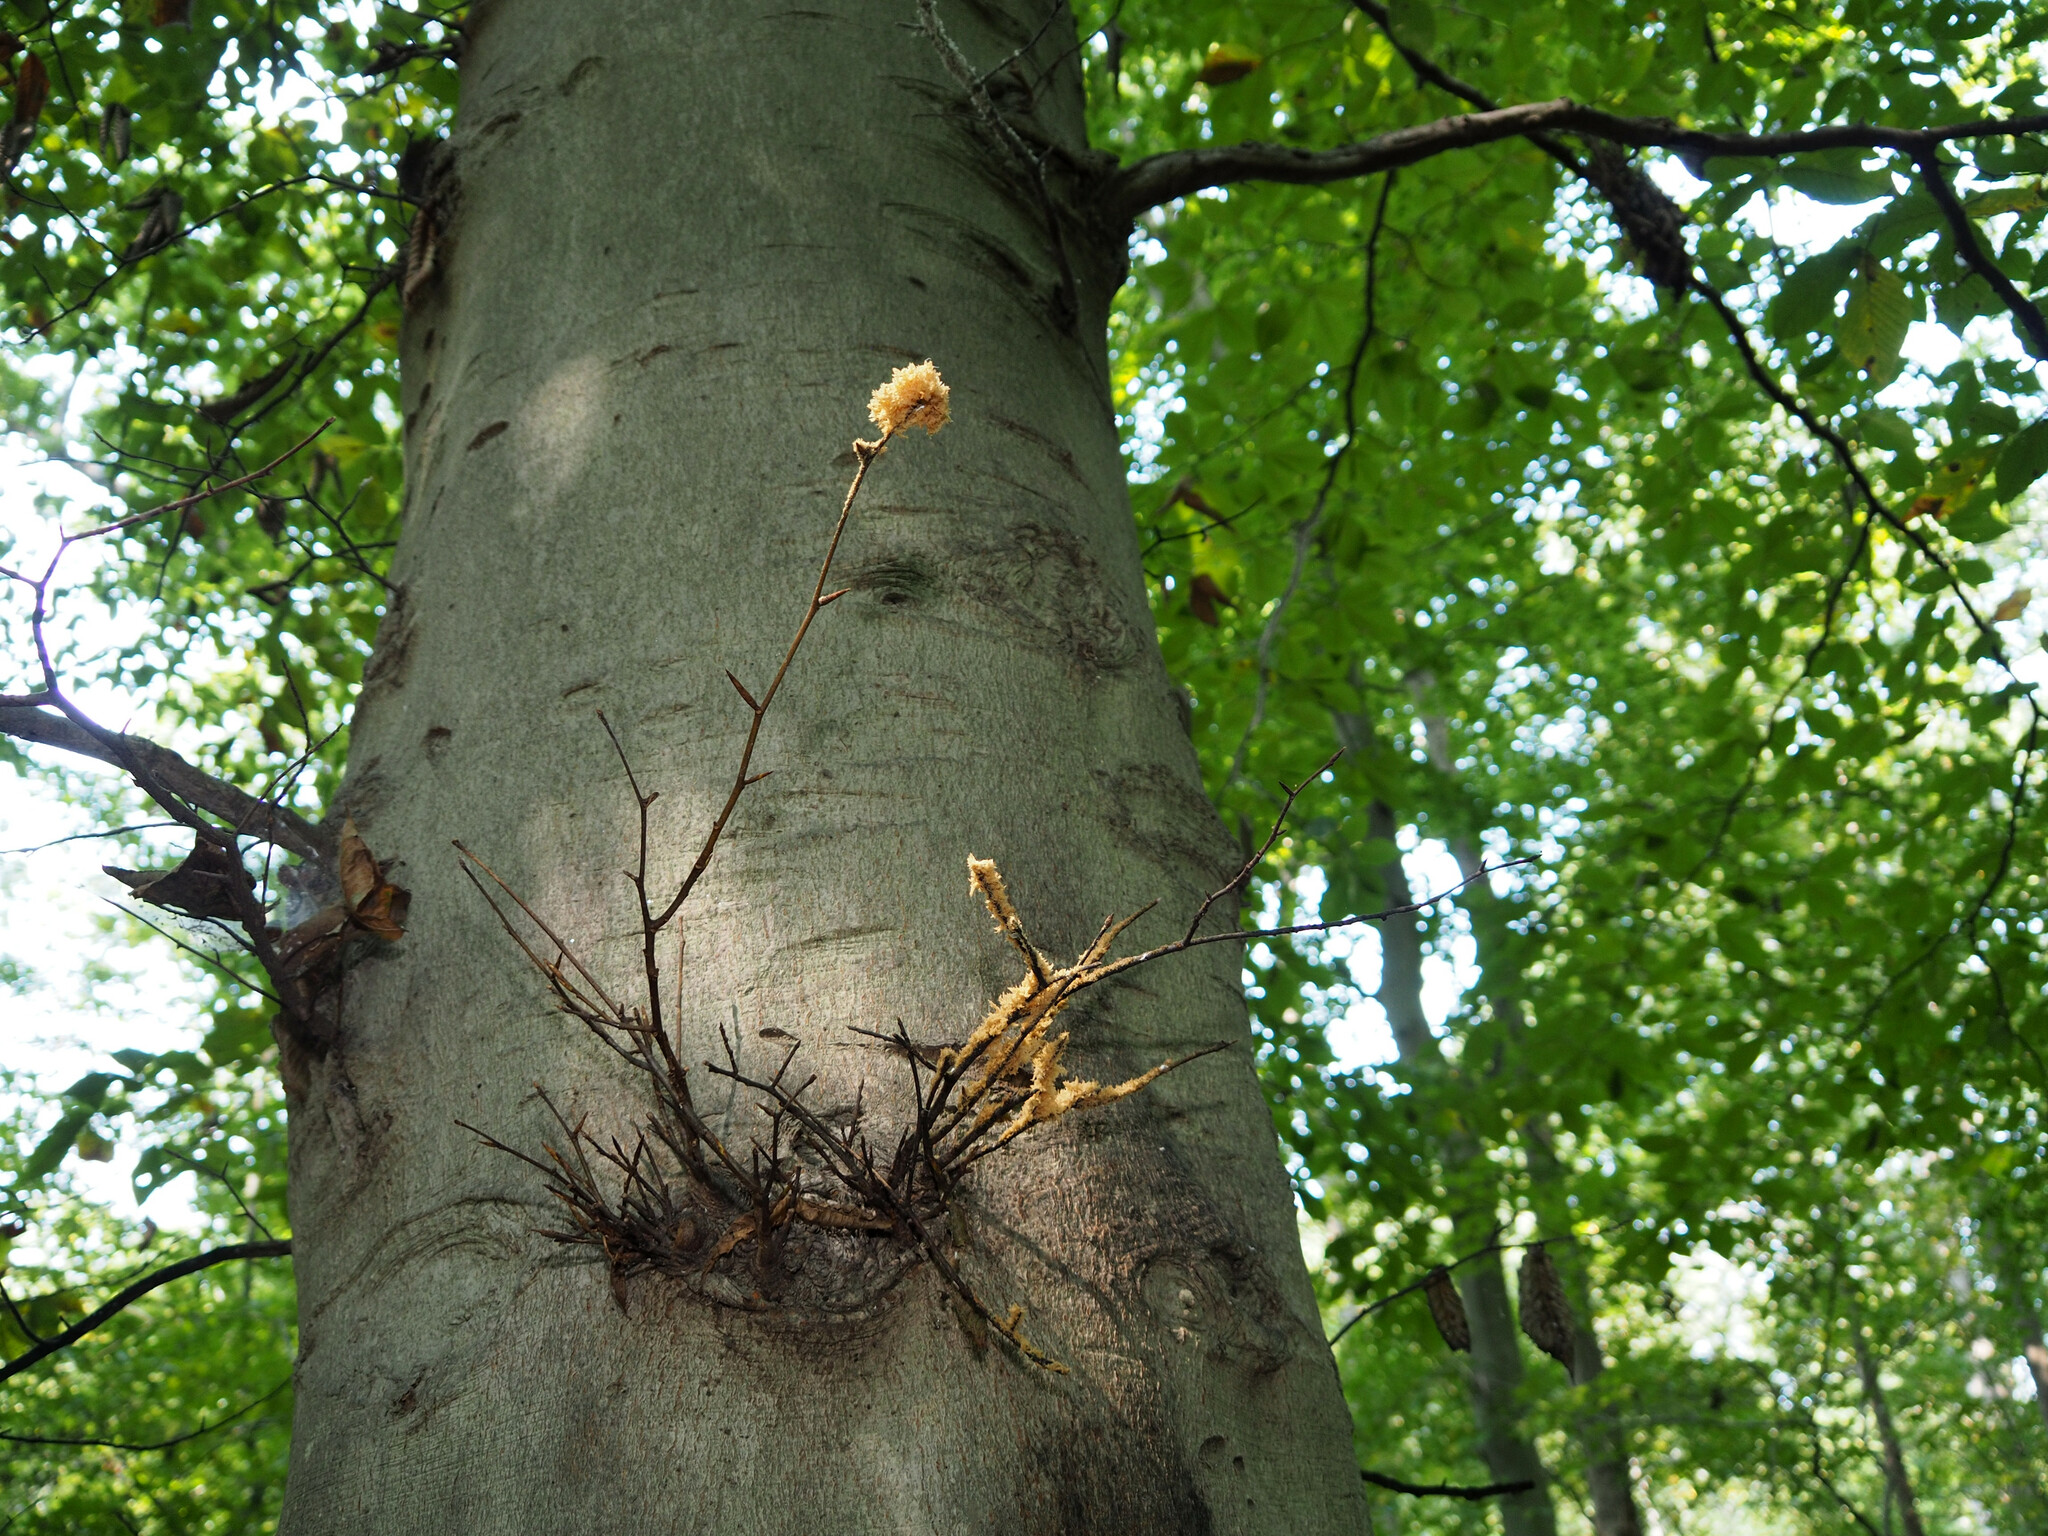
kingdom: Fungi
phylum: Ascomycota
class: Dothideomycetes
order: Capnodiales
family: Capnodiaceae
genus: Scorias
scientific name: Scorias spongiosa
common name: Black sooty mold
